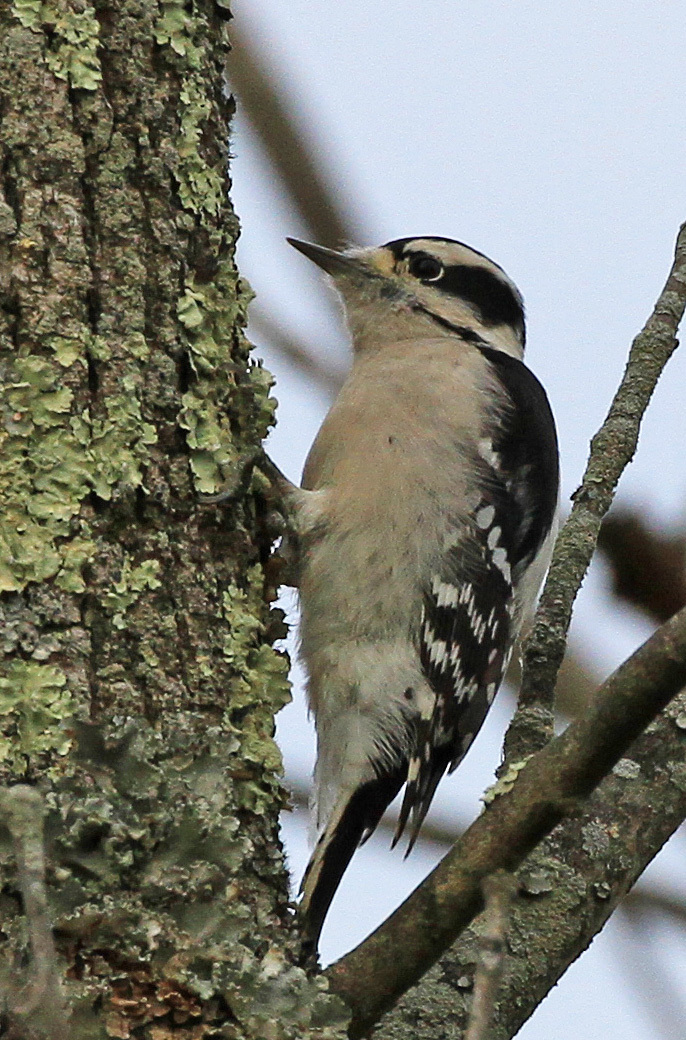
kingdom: Animalia
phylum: Chordata
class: Aves
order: Piciformes
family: Picidae
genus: Dryobates
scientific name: Dryobates pubescens
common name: Downy woodpecker
